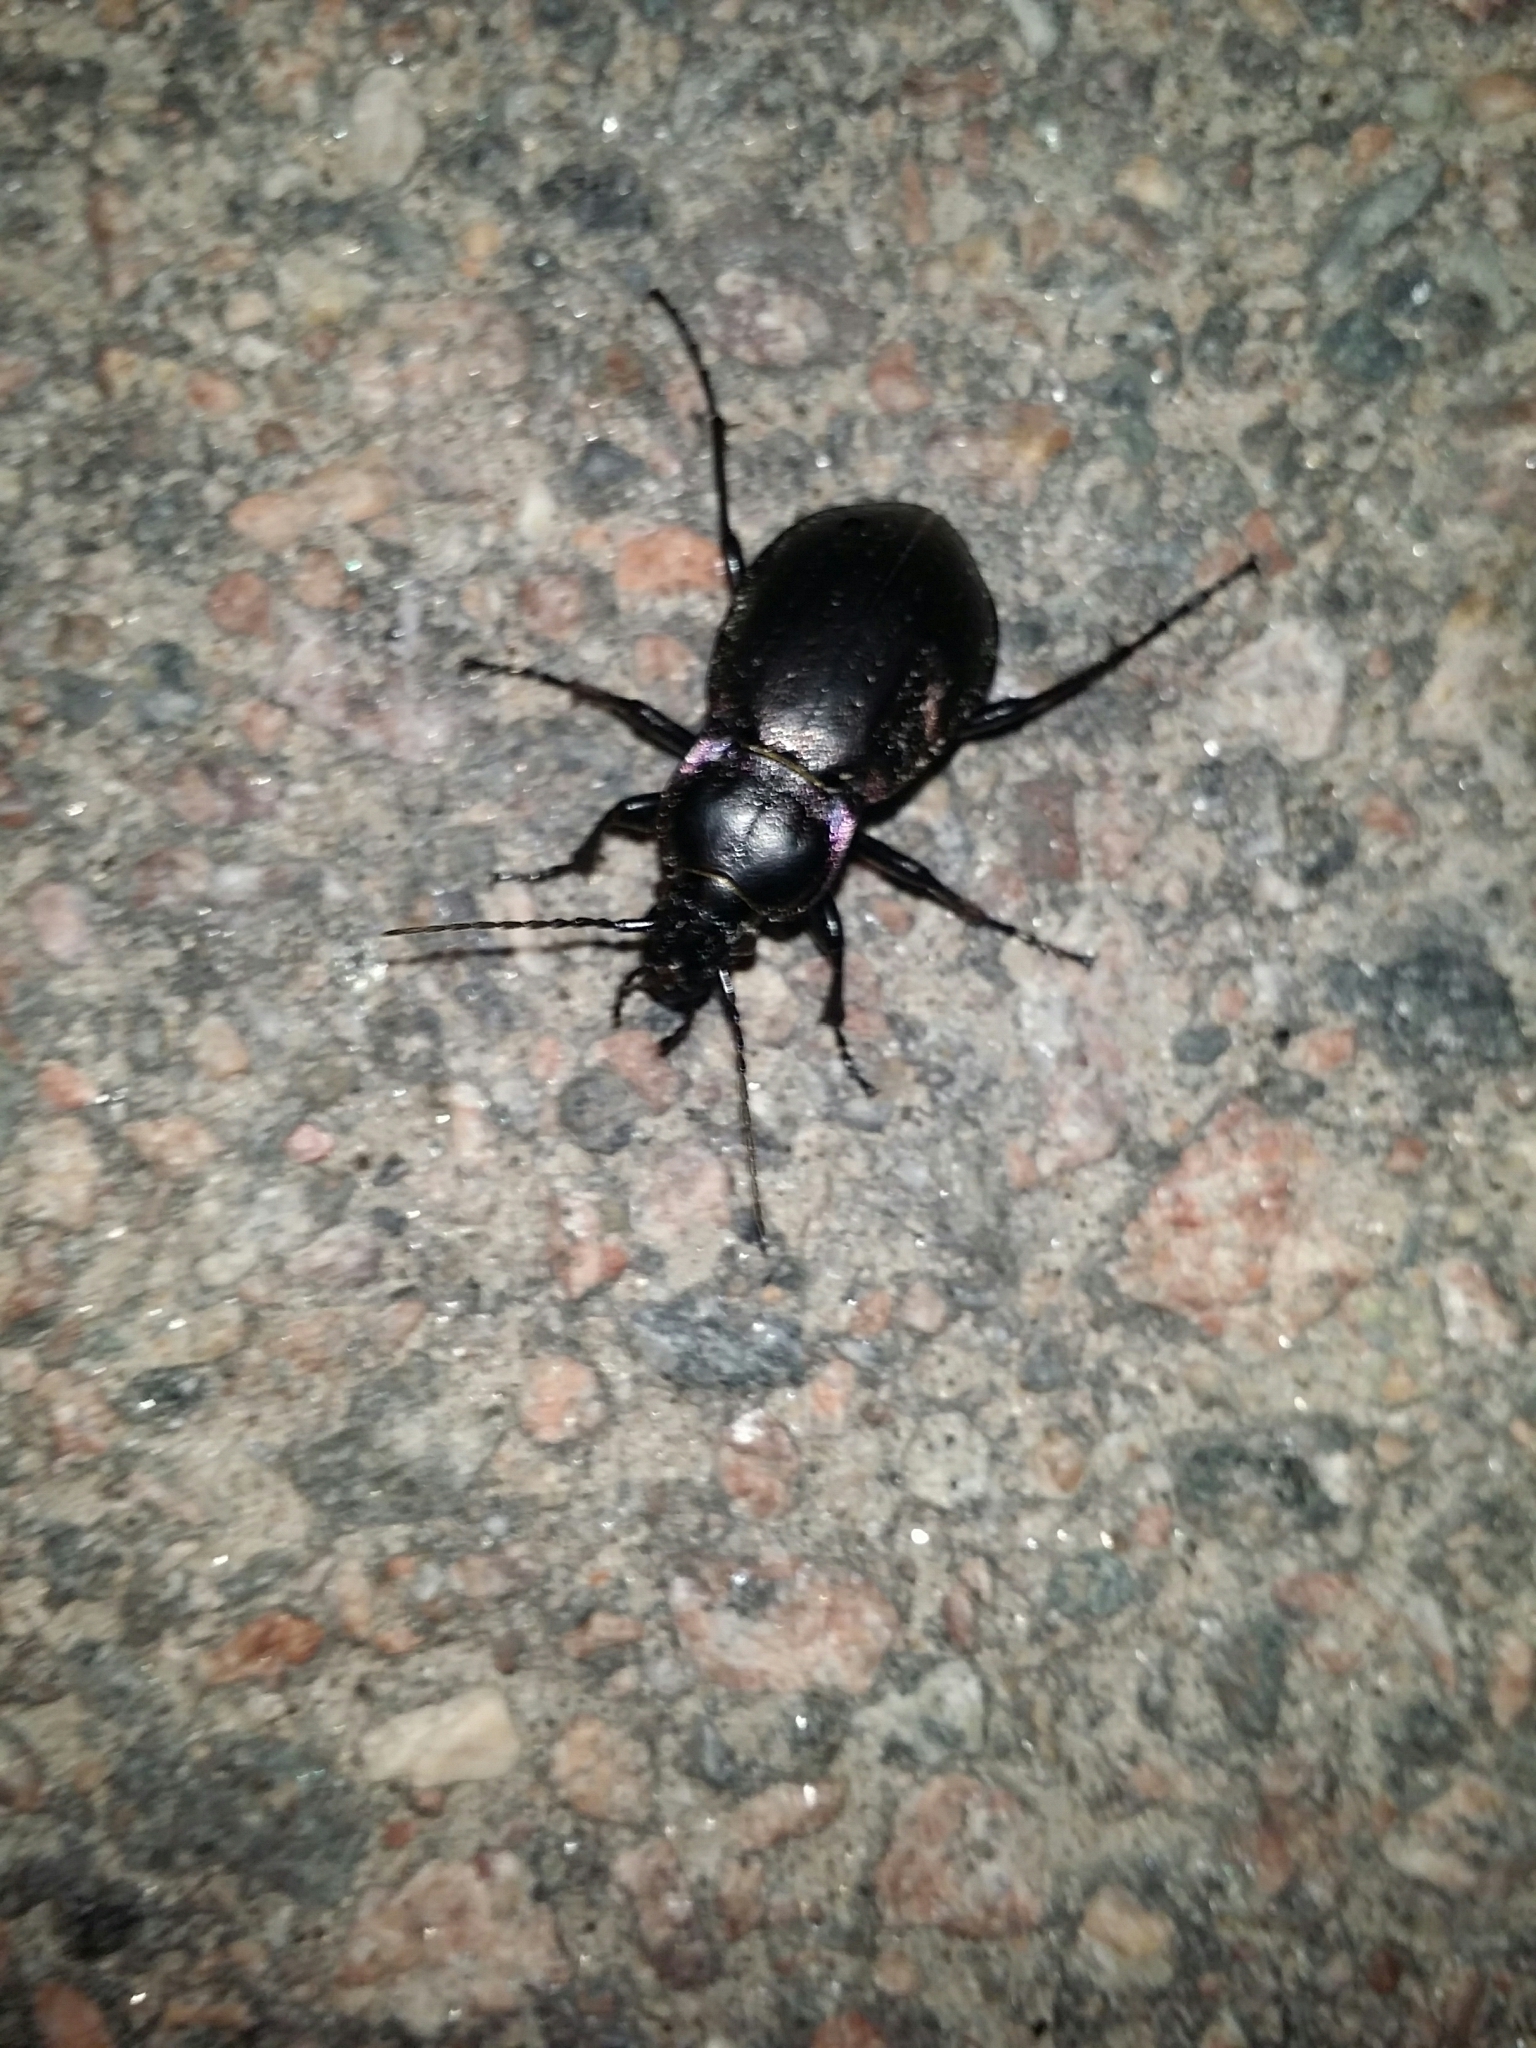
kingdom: Animalia
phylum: Arthropoda
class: Insecta
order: Coleoptera
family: Carabidae
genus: Carabus
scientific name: Carabus nemoralis
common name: European ground beetle
